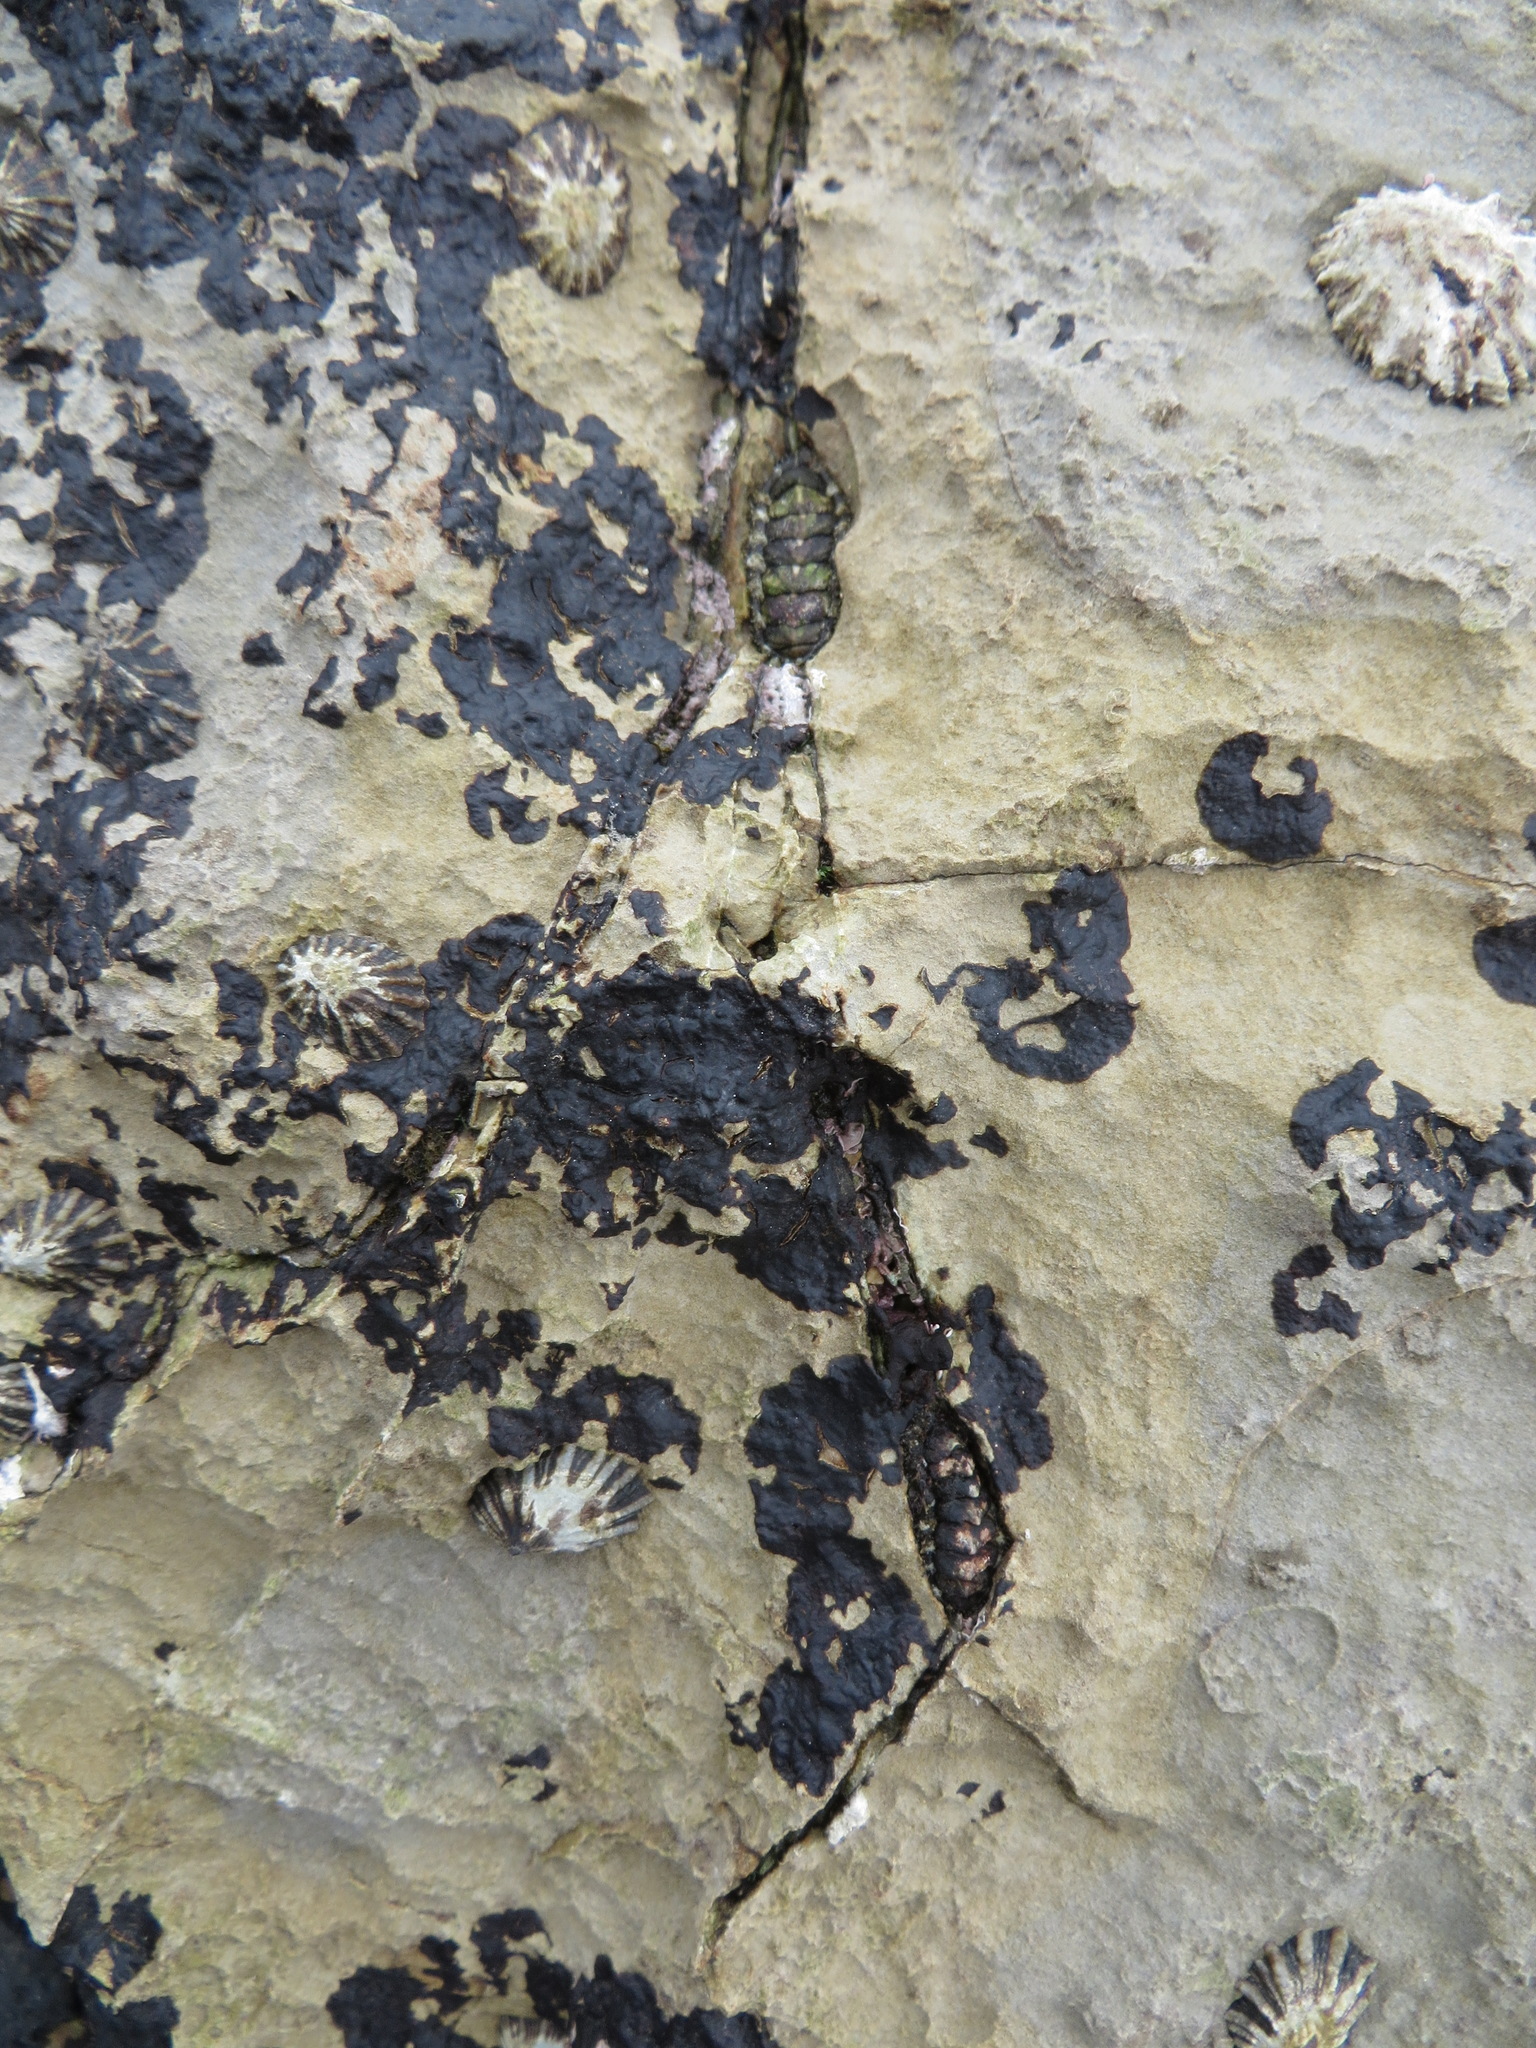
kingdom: Animalia
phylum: Mollusca
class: Polyplacophora
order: Chitonida
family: Tonicellidae
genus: Nuttallina
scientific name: Nuttallina californica
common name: California nuttall chiton
